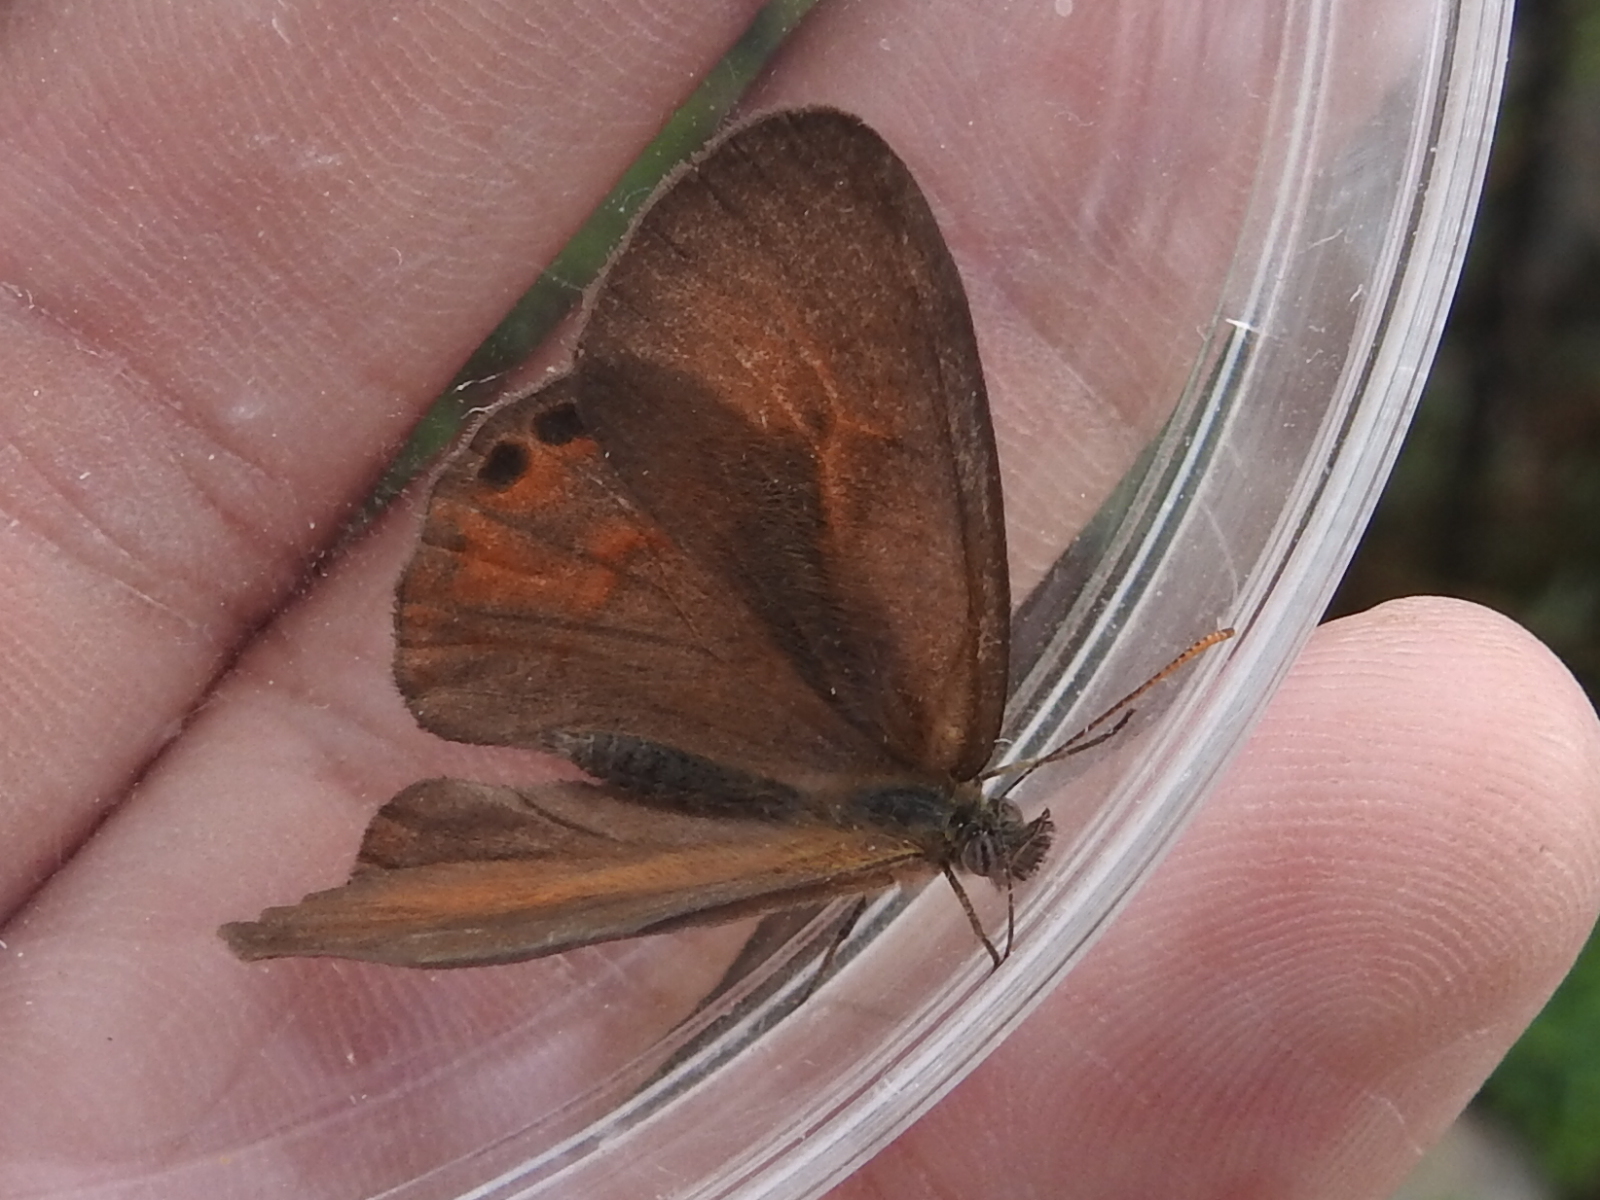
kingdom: Animalia
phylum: Arthropoda
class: Insecta
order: Lepidoptera
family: Nymphalidae
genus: Euptychia
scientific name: Euptychia pyracmon
